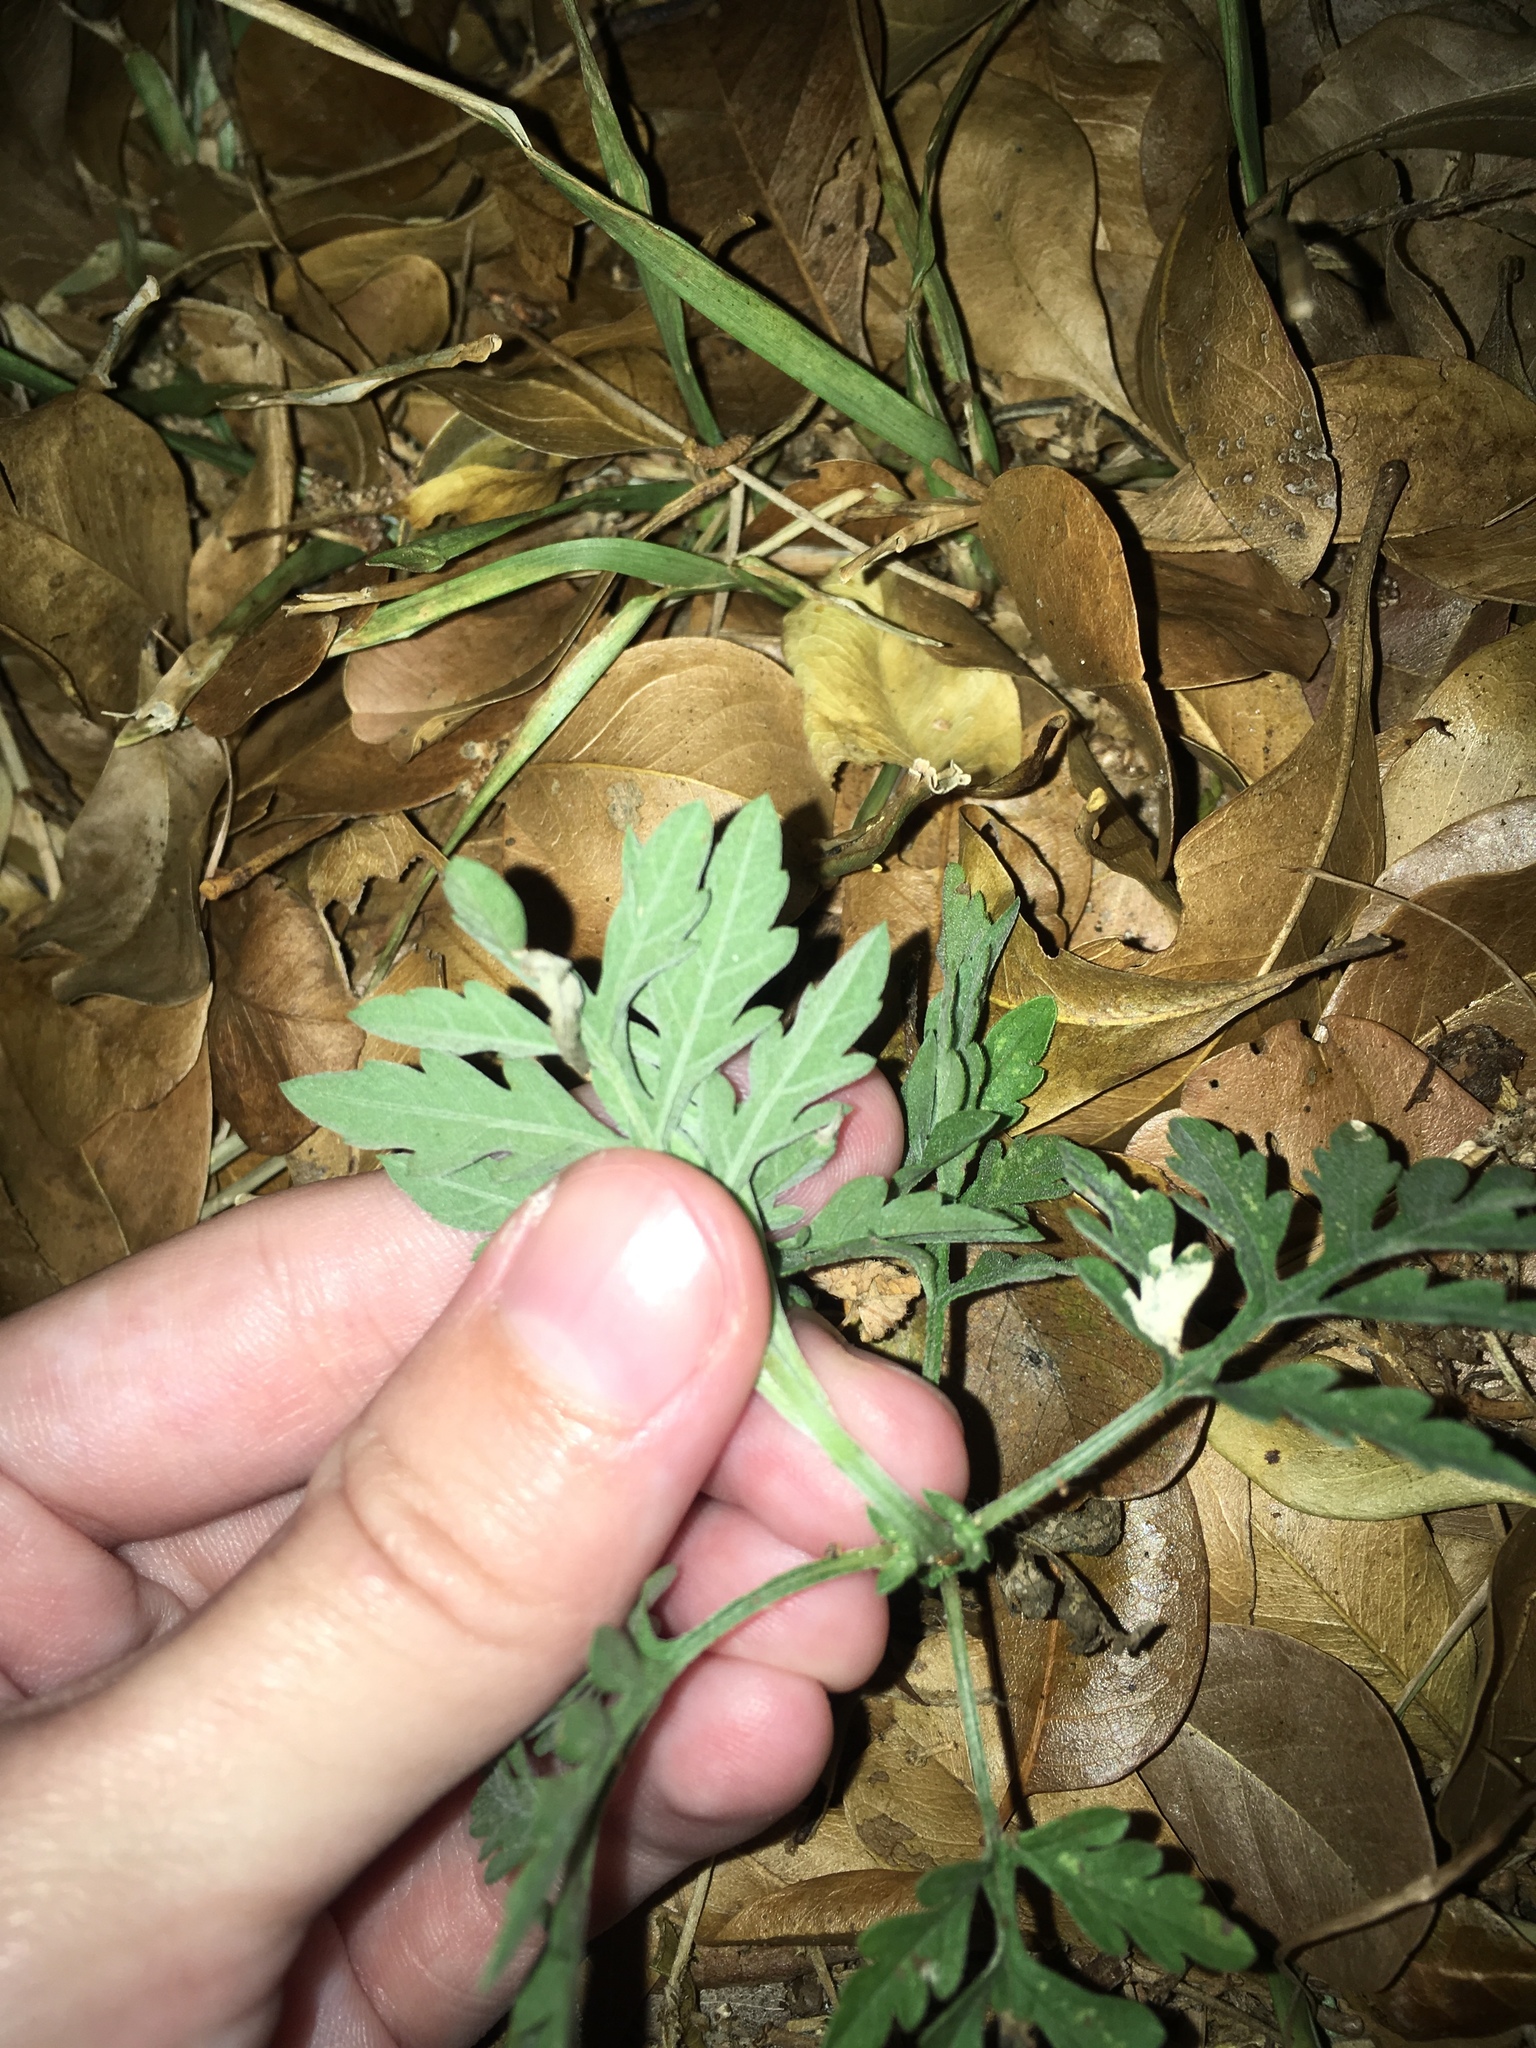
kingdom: Plantae
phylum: Tracheophyta
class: Magnoliopsida
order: Asterales
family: Asteraceae
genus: Ambrosia
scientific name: Ambrosia artemisiifolia
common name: Annual ragweed
